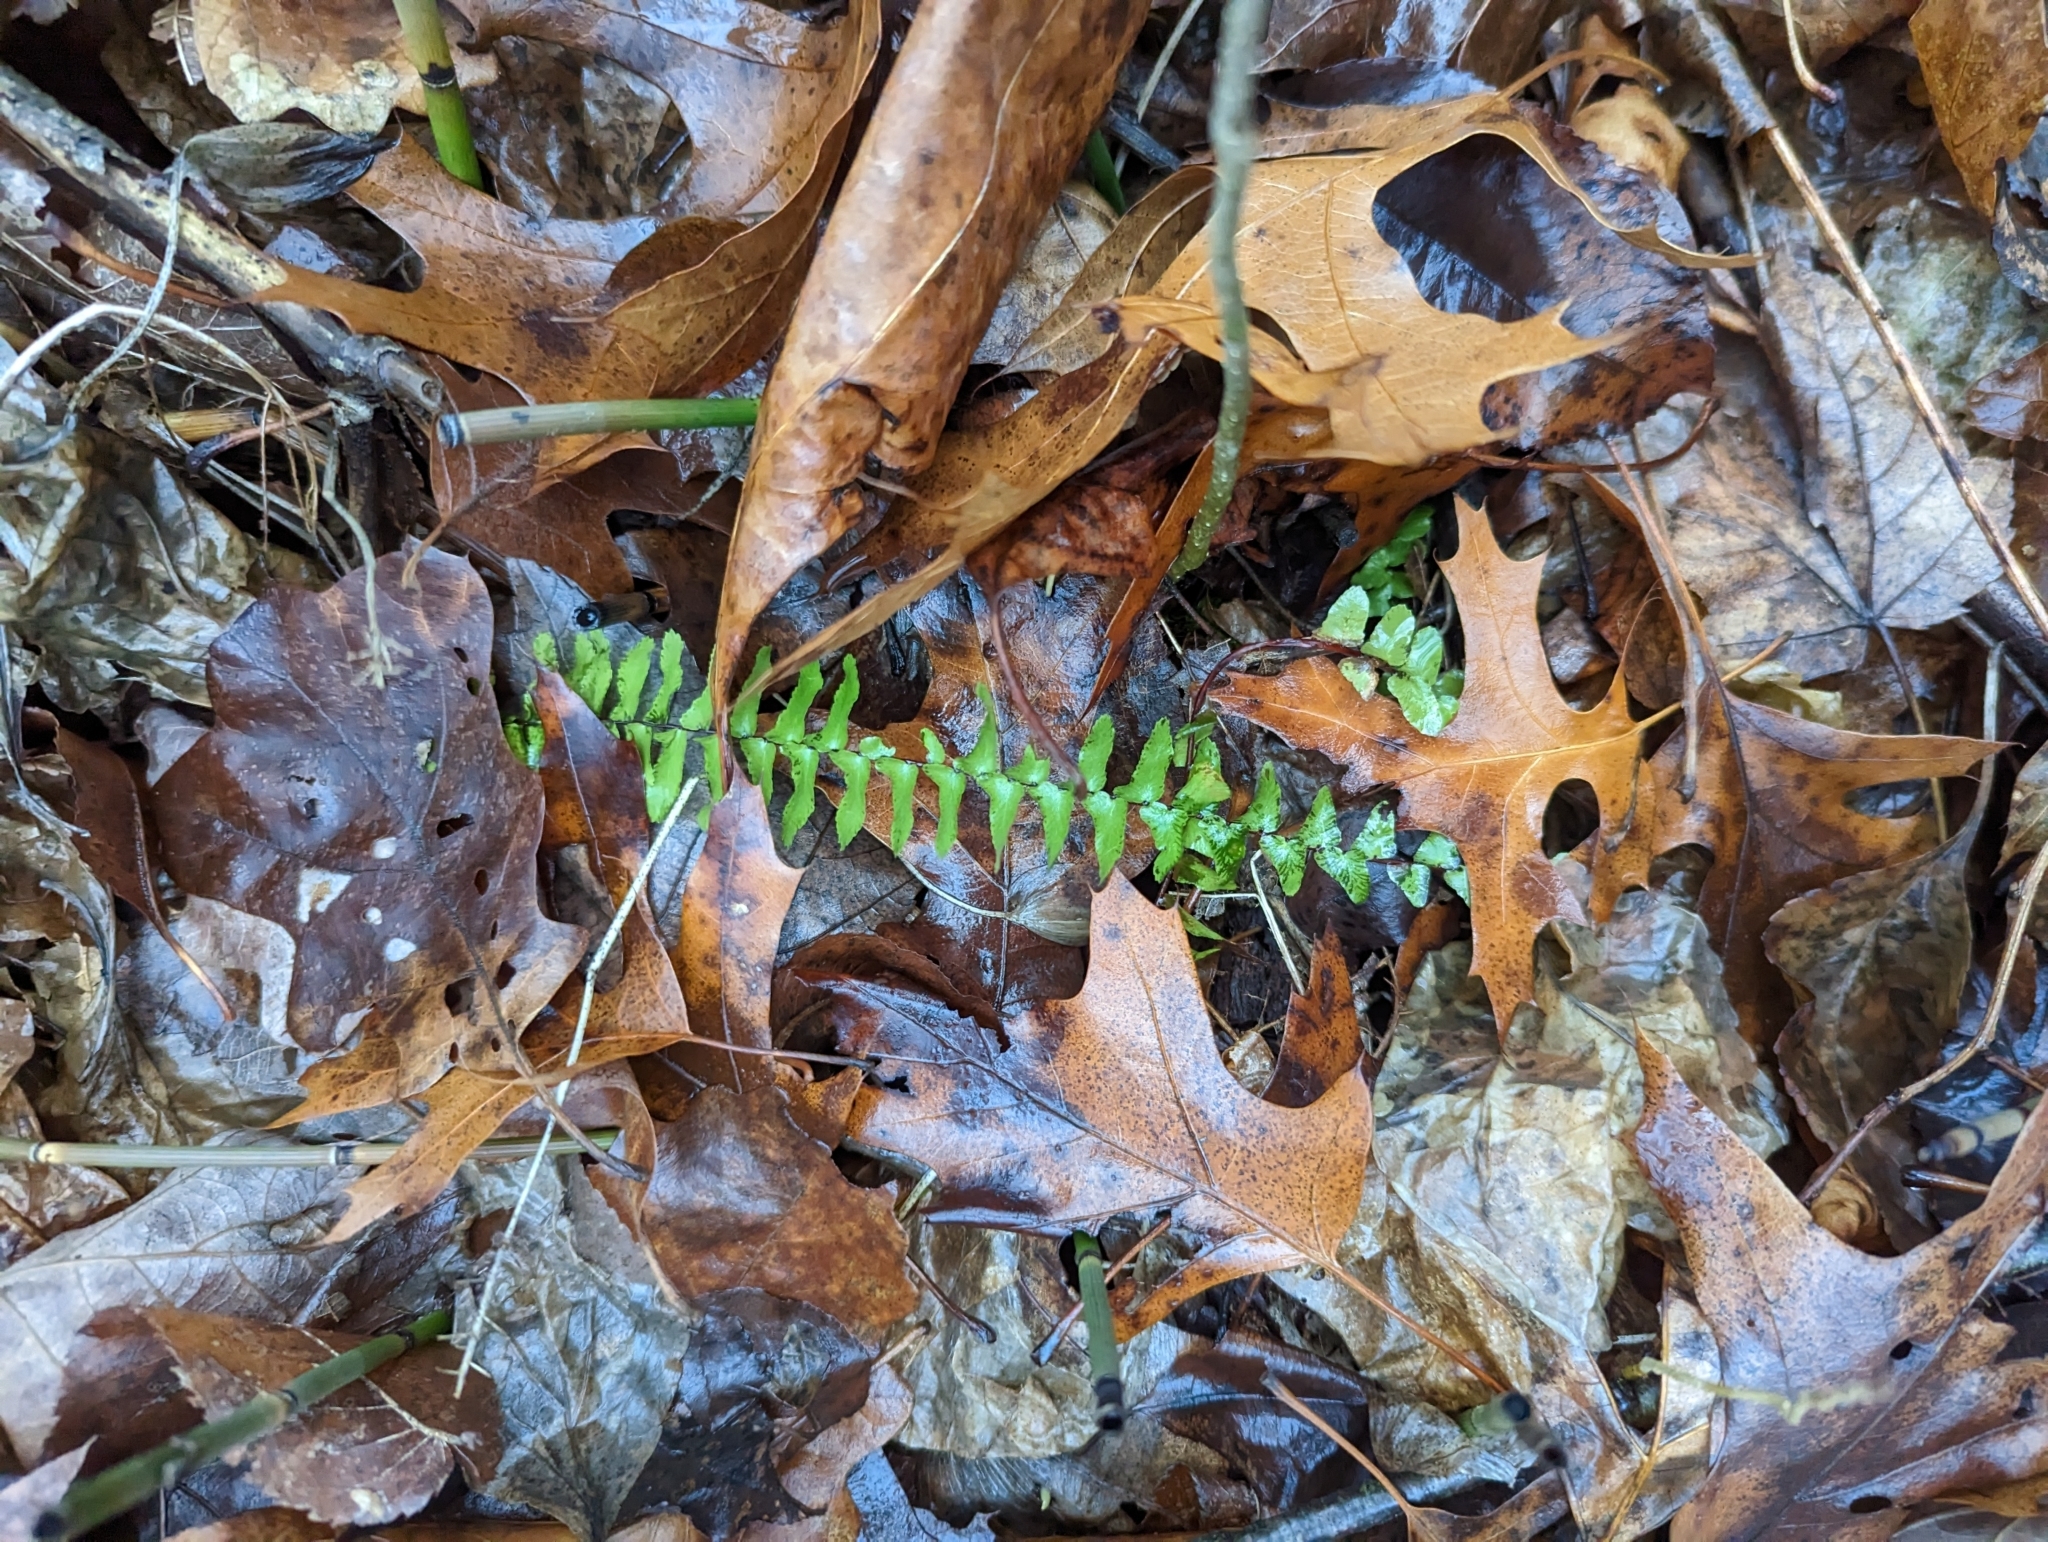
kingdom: Plantae
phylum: Tracheophyta
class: Polypodiopsida
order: Polypodiales
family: Aspleniaceae
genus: Asplenium
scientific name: Asplenium platyneuron
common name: Ebony spleenwort
